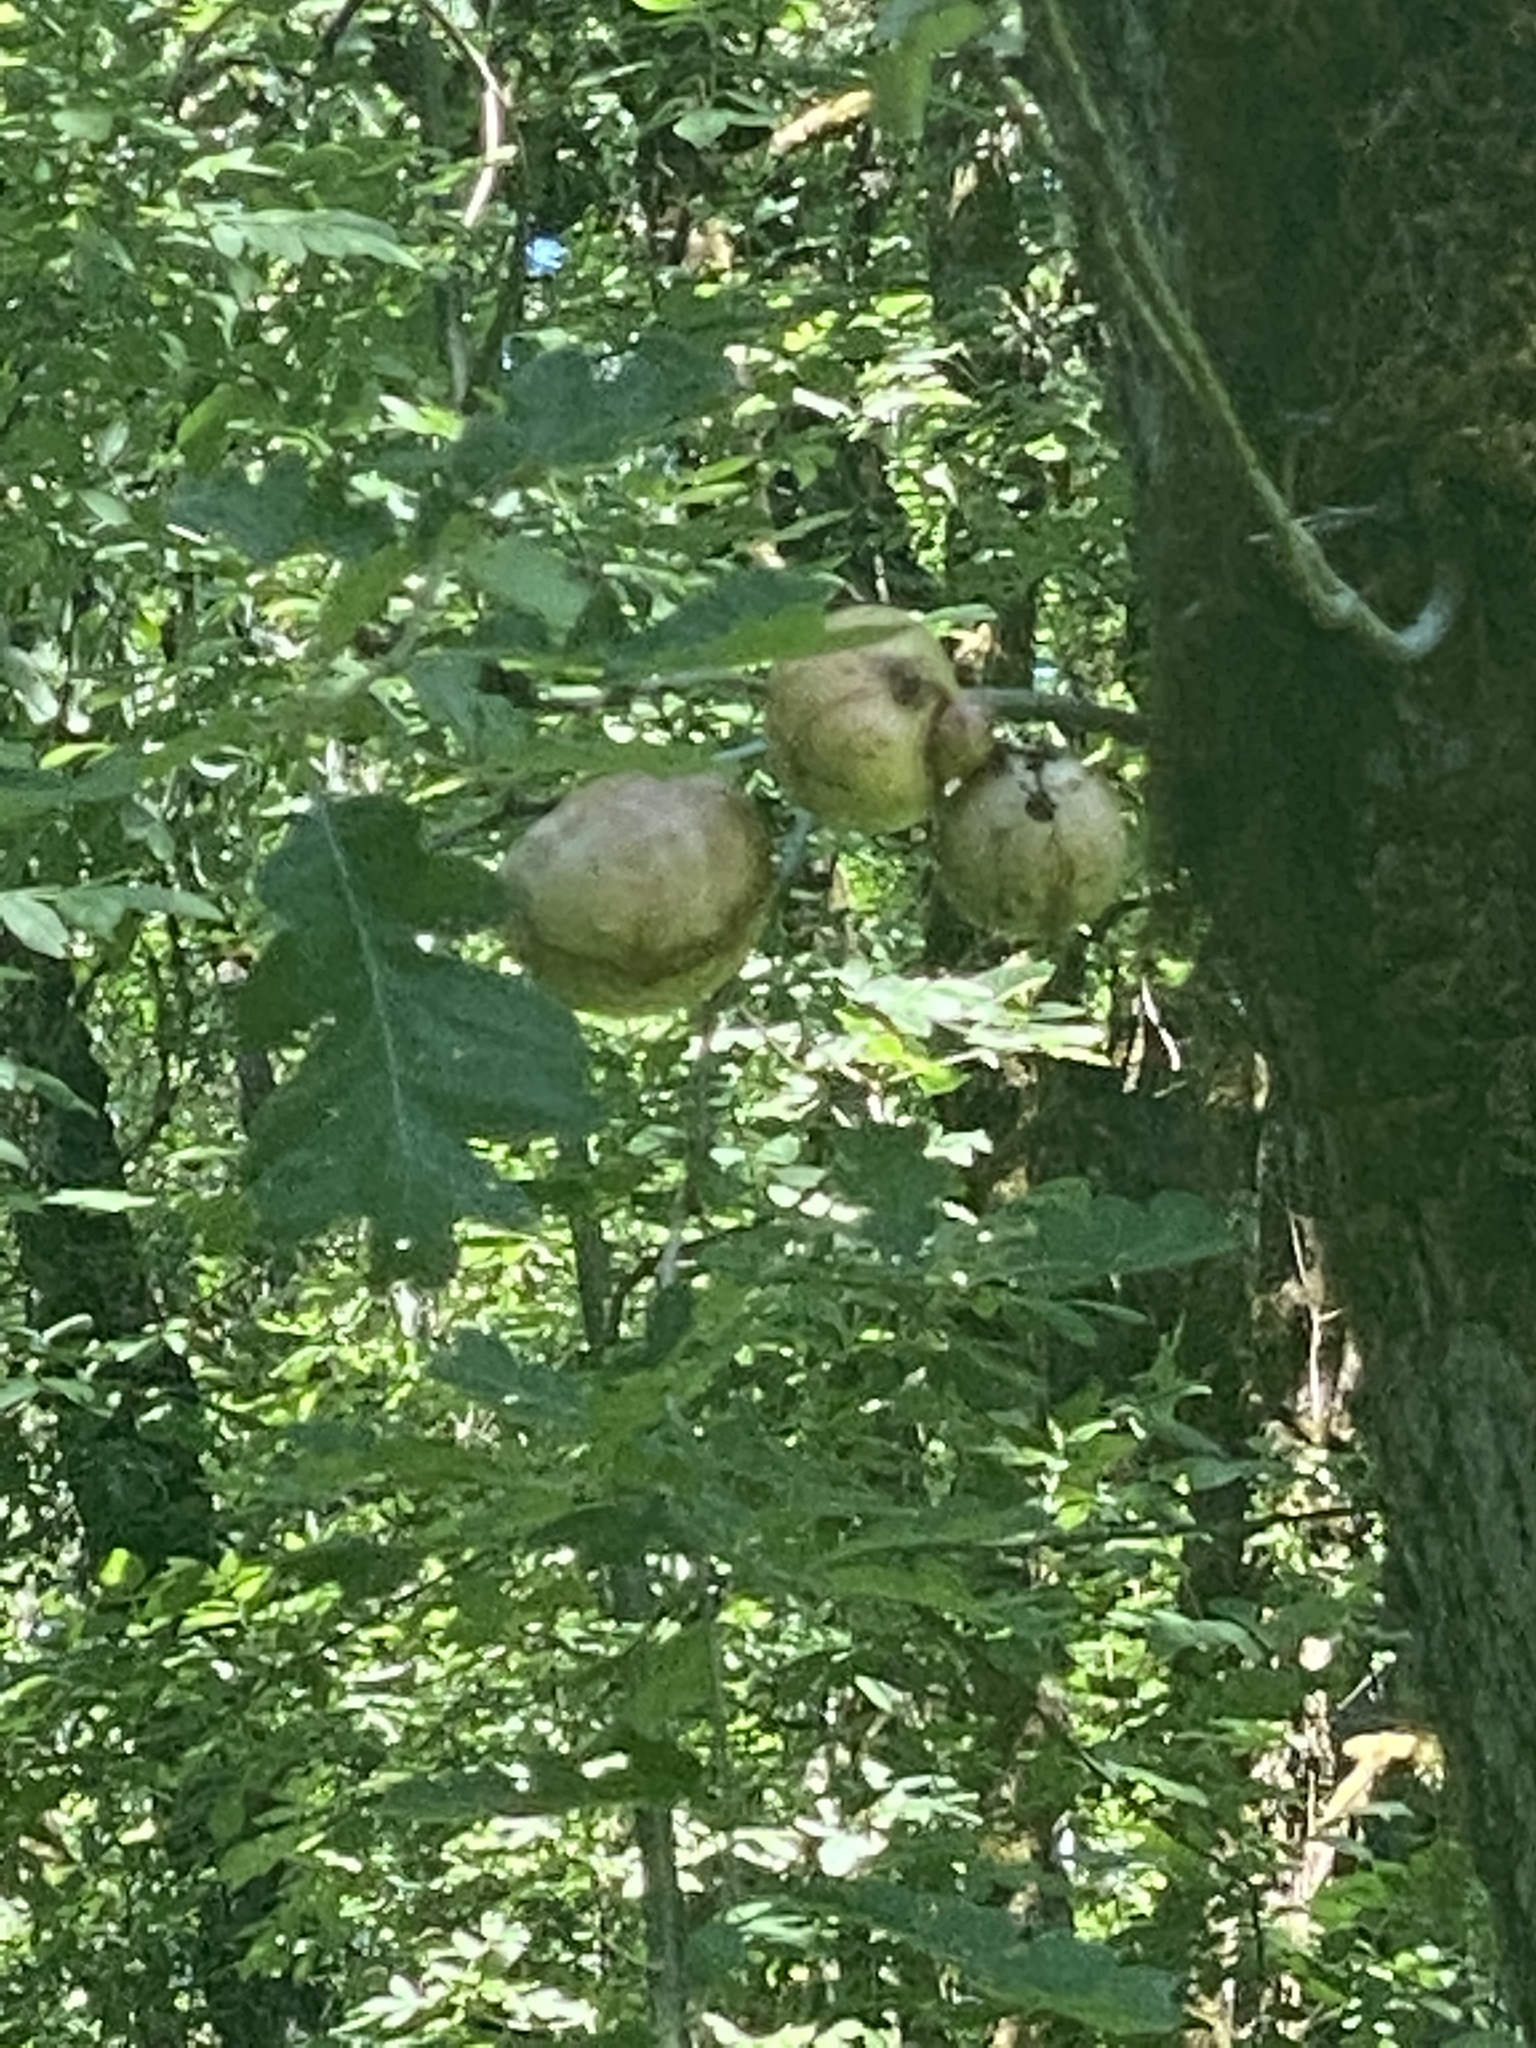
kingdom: Animalia
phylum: Arthropoda
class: Insecta
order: Hymenoptera
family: Cynipidae
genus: Andricus
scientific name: Andricus quercuscalifornicus
